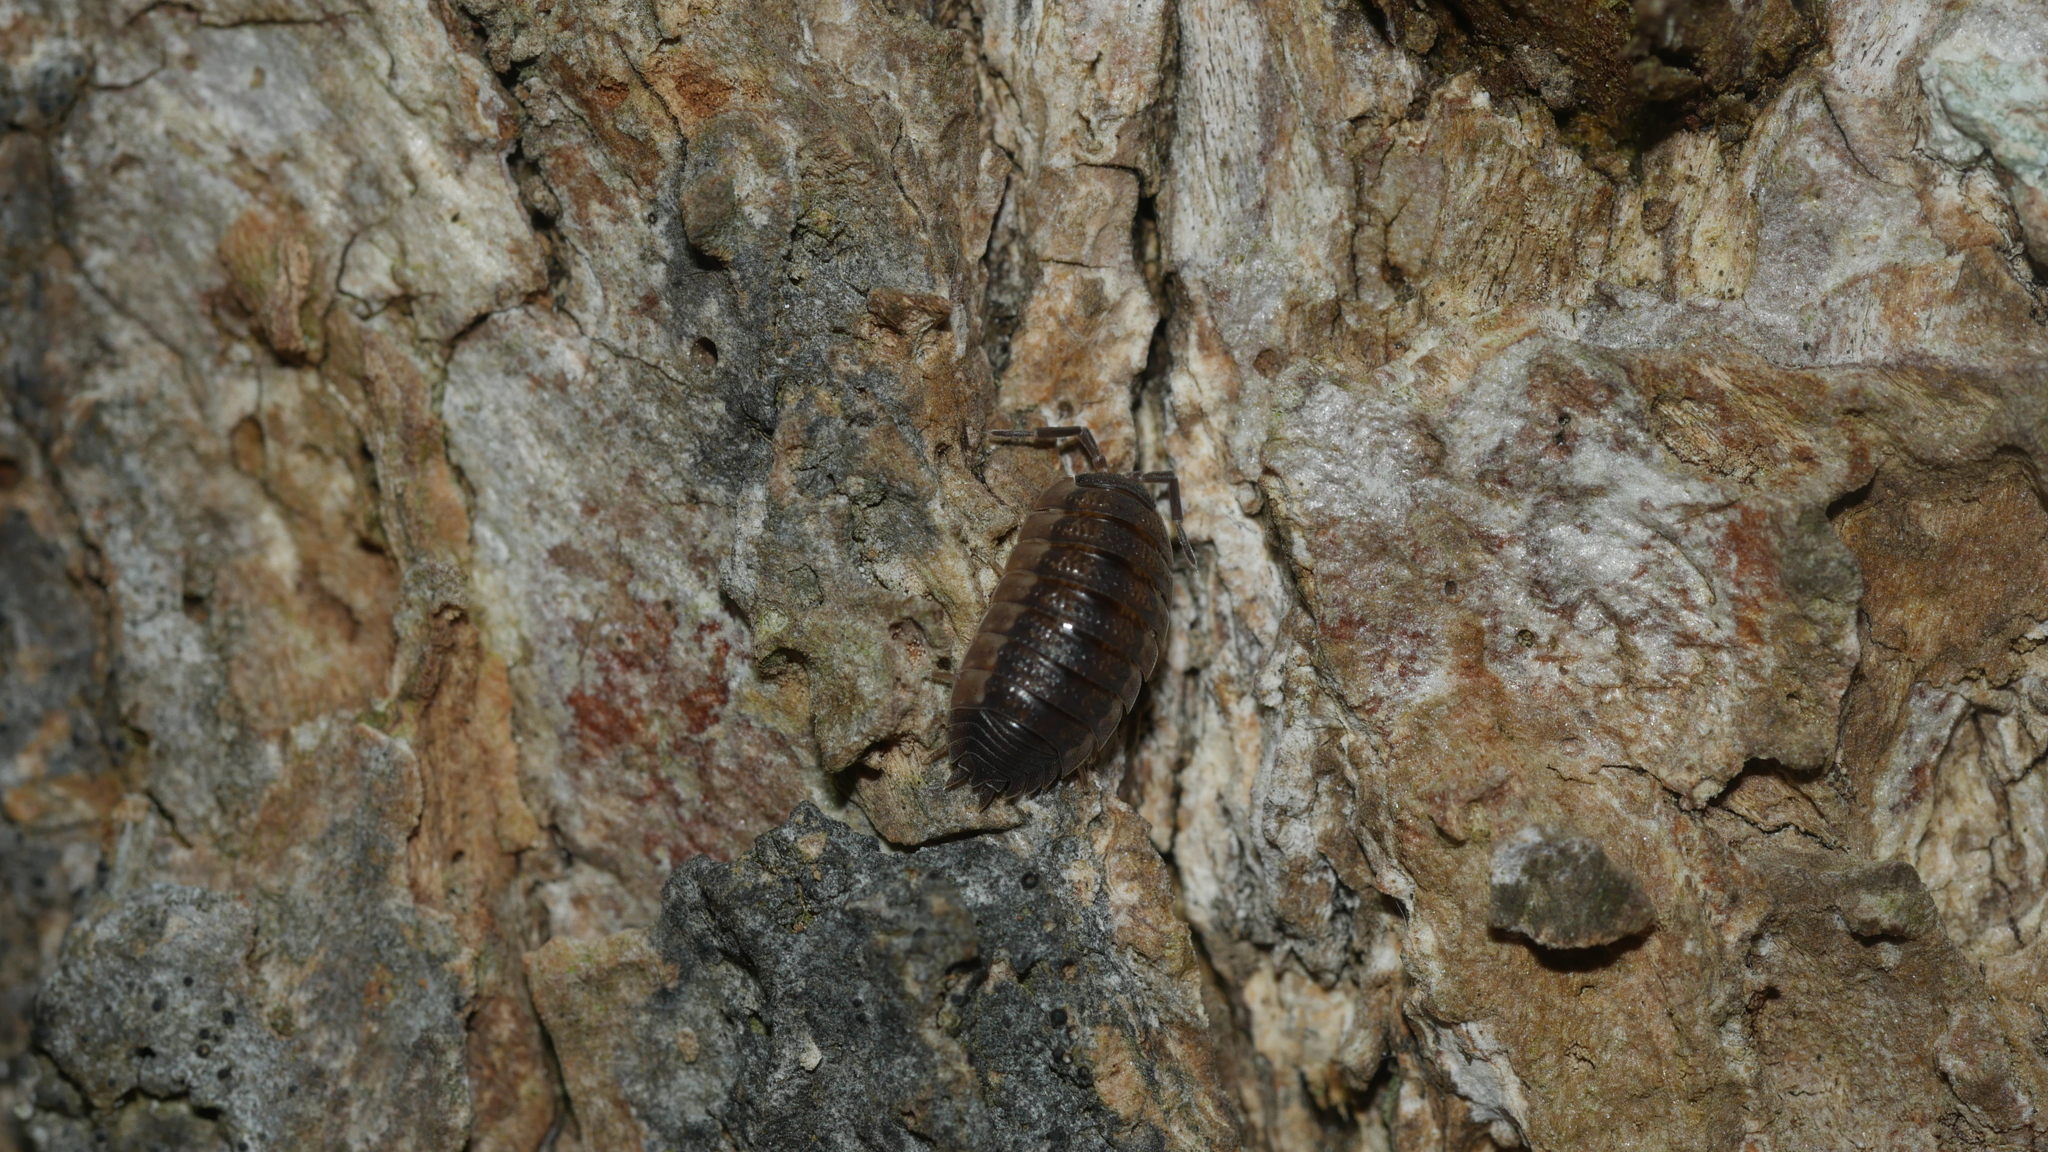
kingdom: Animalia
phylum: Arthropoda
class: Malacostraca
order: Isopoda
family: Porcellionidae
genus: Porcellio
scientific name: Porcellio scaber
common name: Common rough woodlouse
